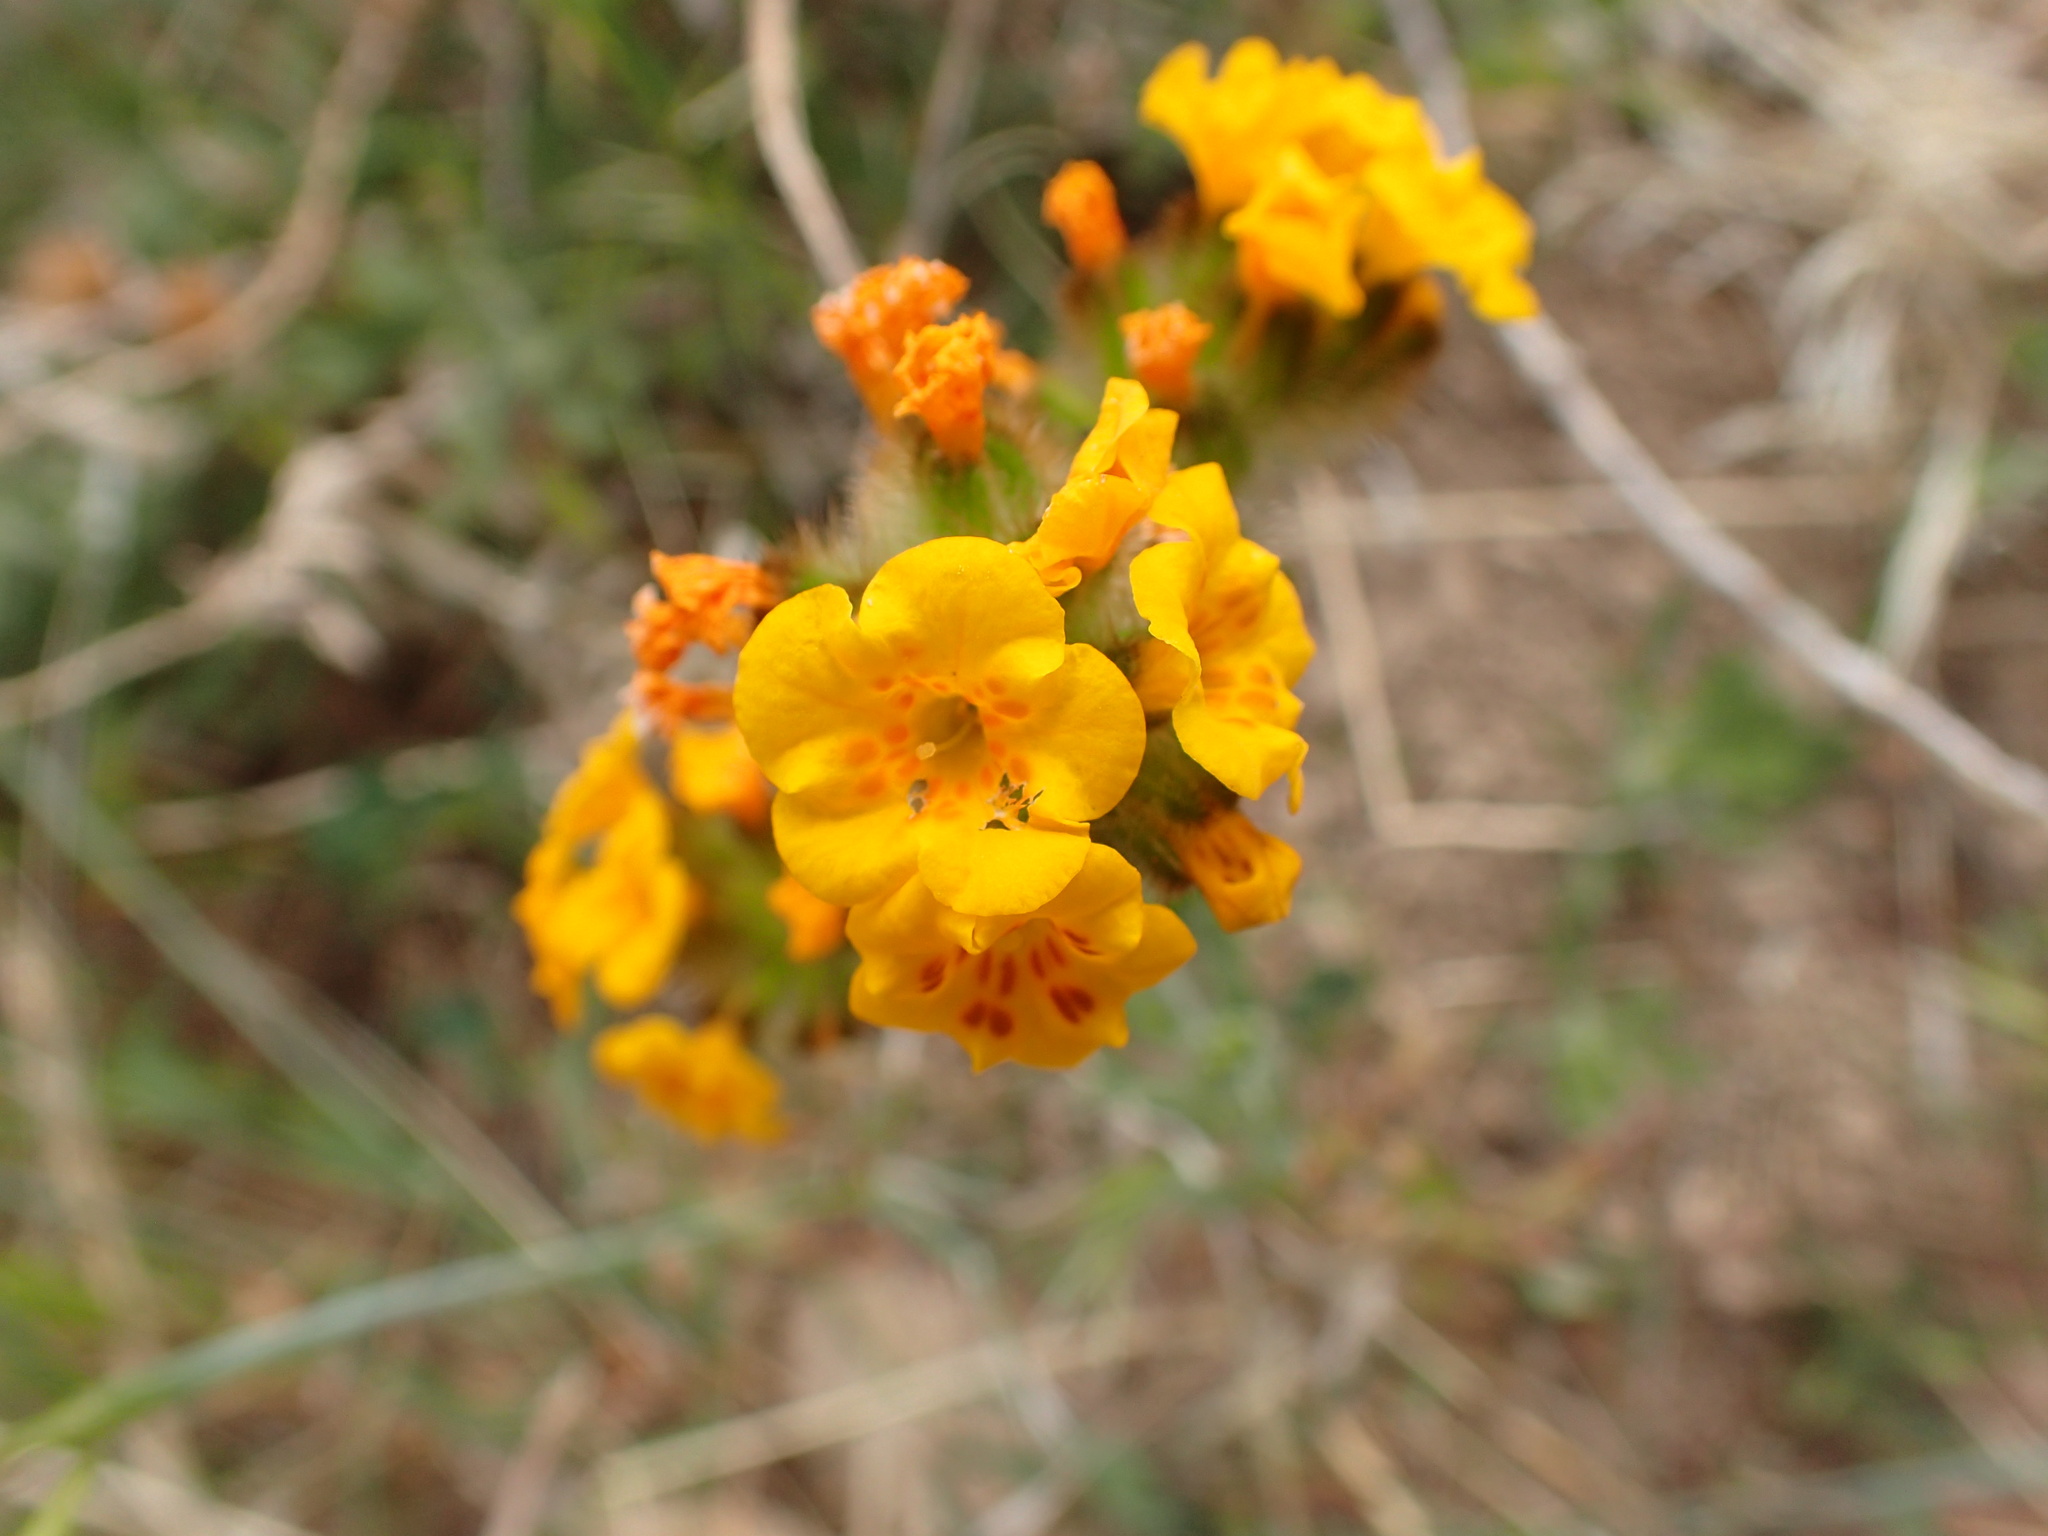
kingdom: Plantae
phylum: Tracheophyta
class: Magnoliopsida
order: Boraginales
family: Boraginaceae
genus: Amsinckia
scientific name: Amsinckia douglasiana
